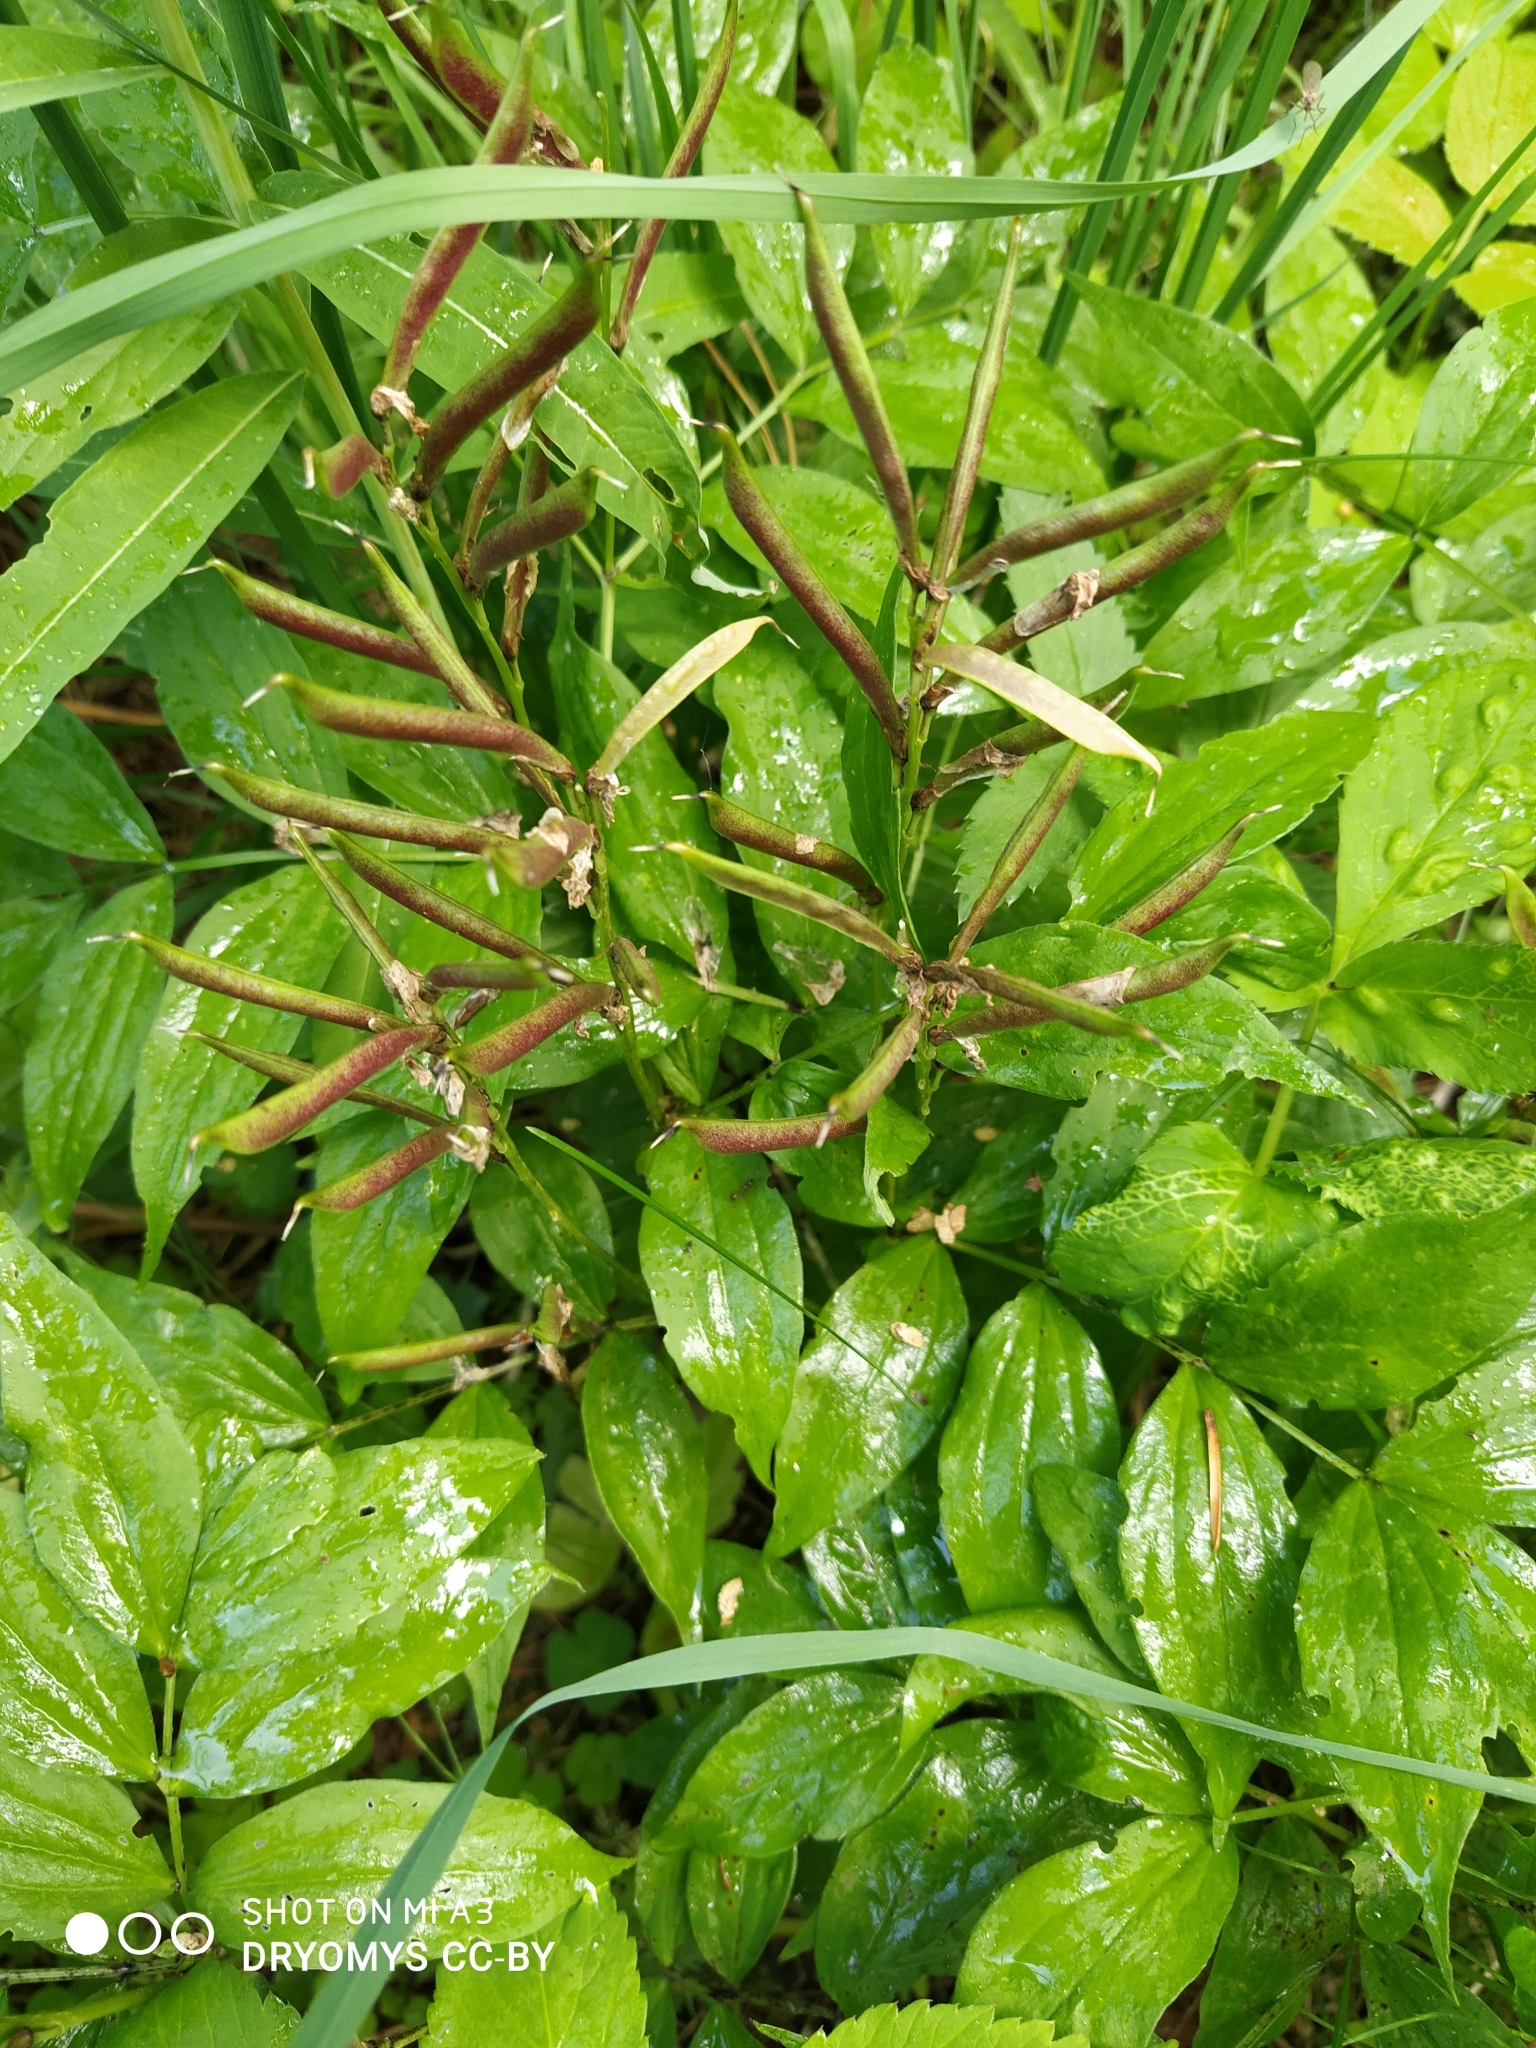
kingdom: Plantae
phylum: Tracheophyta
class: Magnoliopsida
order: Fabales
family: Fabaceae
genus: Lathyrus
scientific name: Lathyrus vernus
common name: Spring pea
